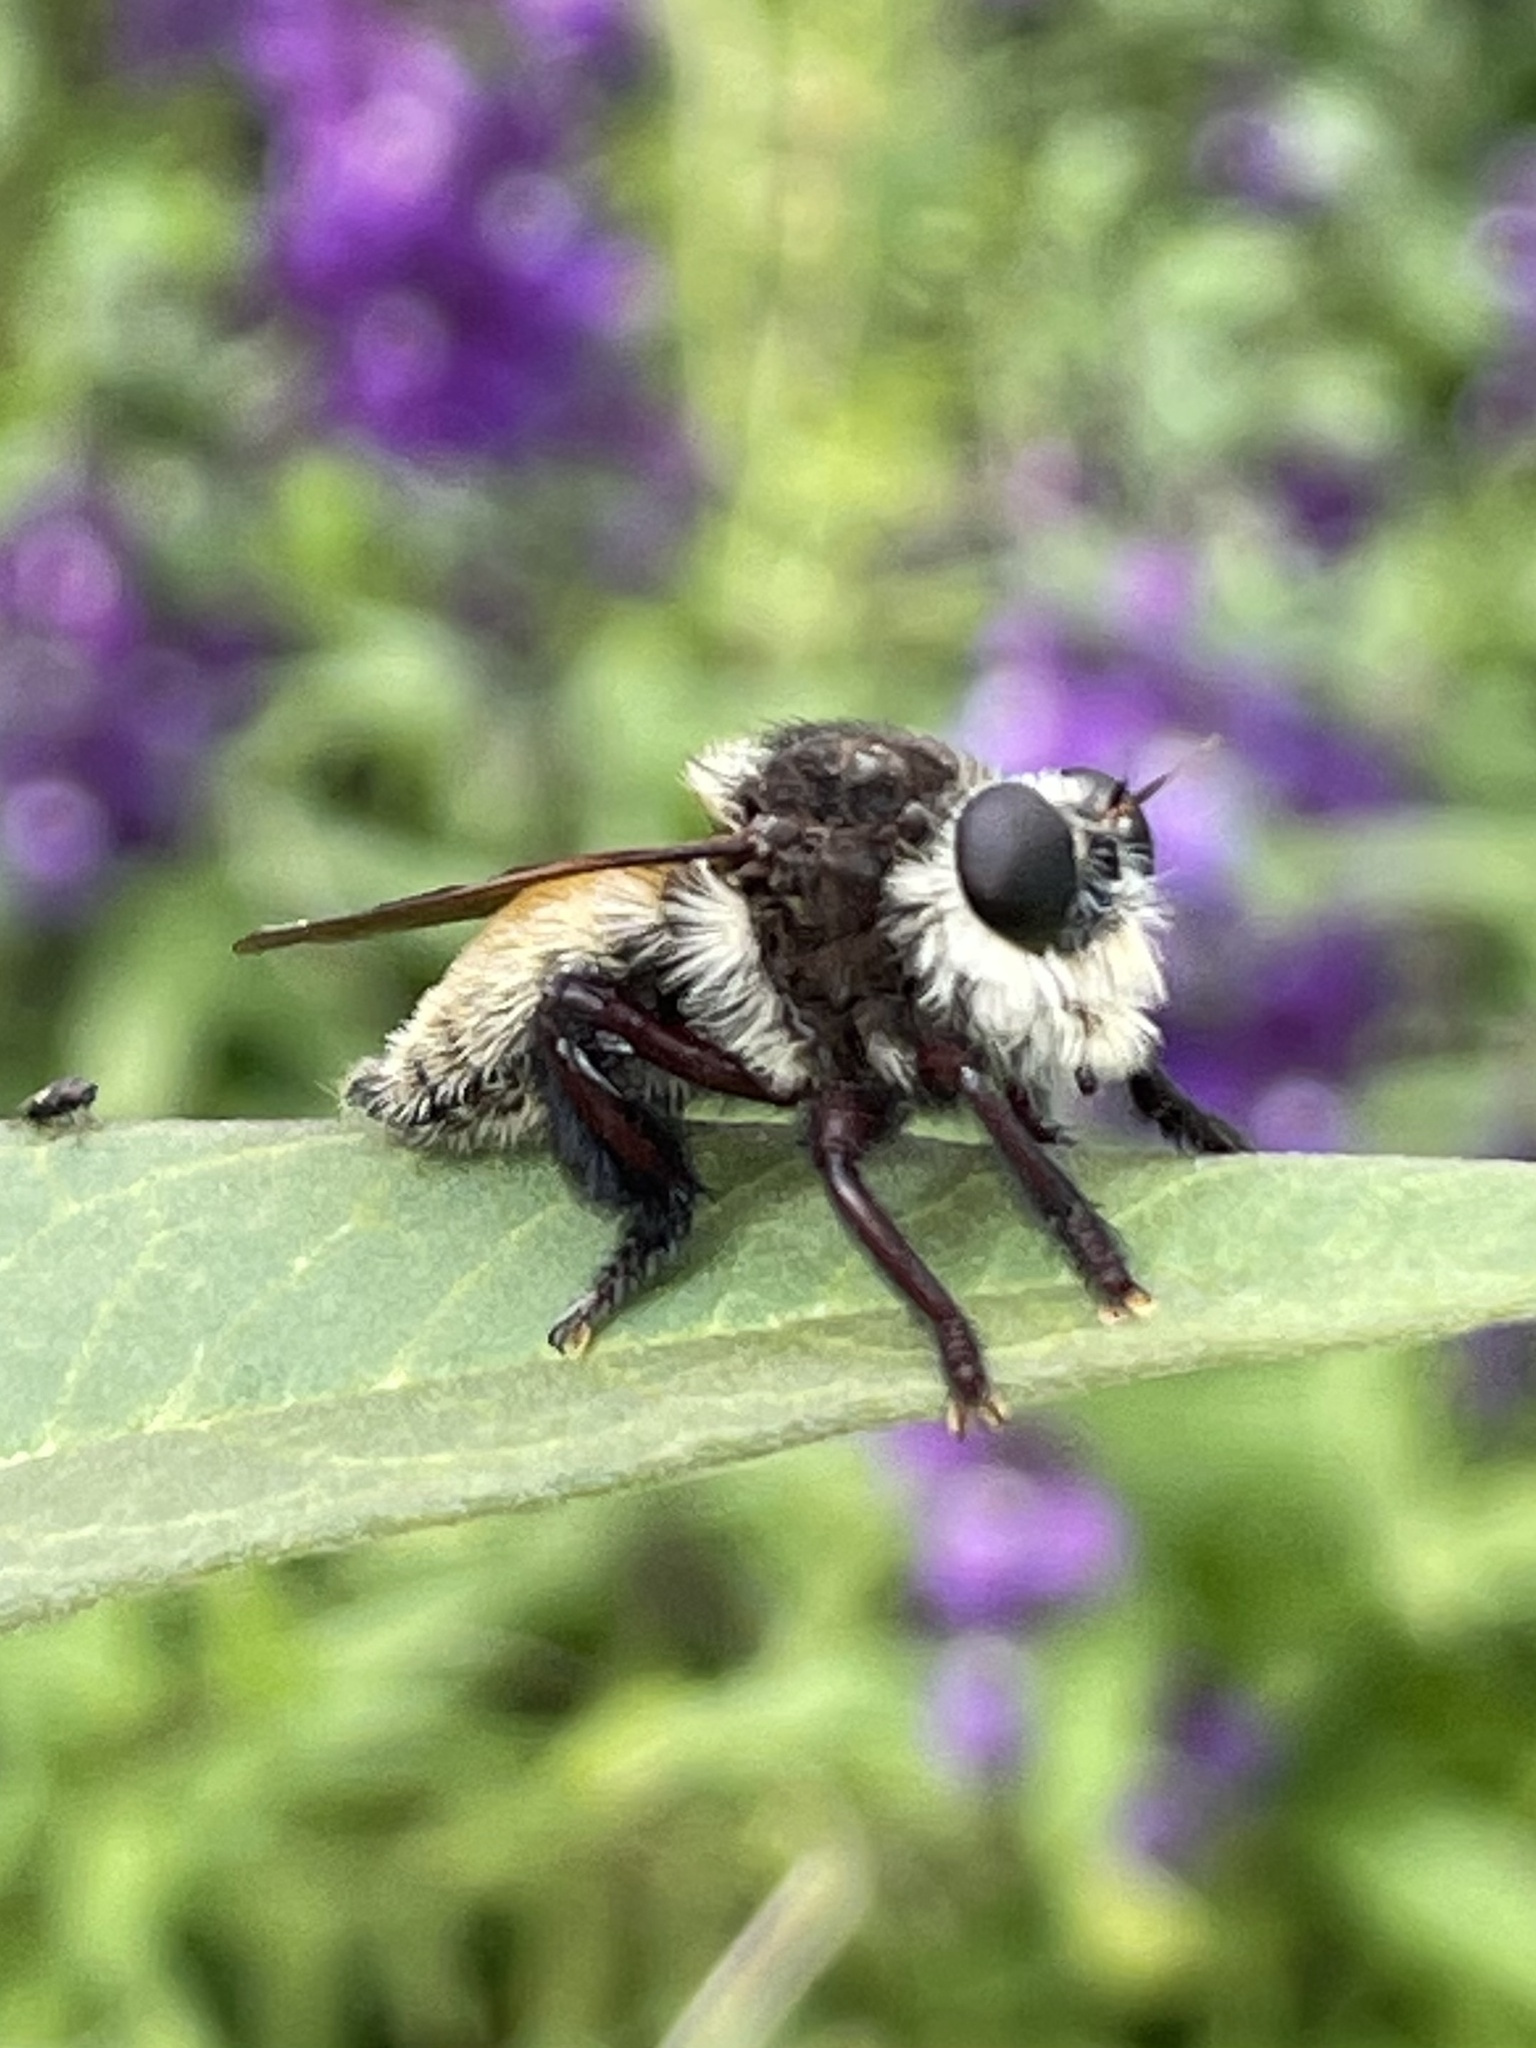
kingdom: Animalia
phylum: Arthropoda
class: Insecta
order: Diptera
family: Asilidae
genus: Mallophora
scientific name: Mallophora fautrix
